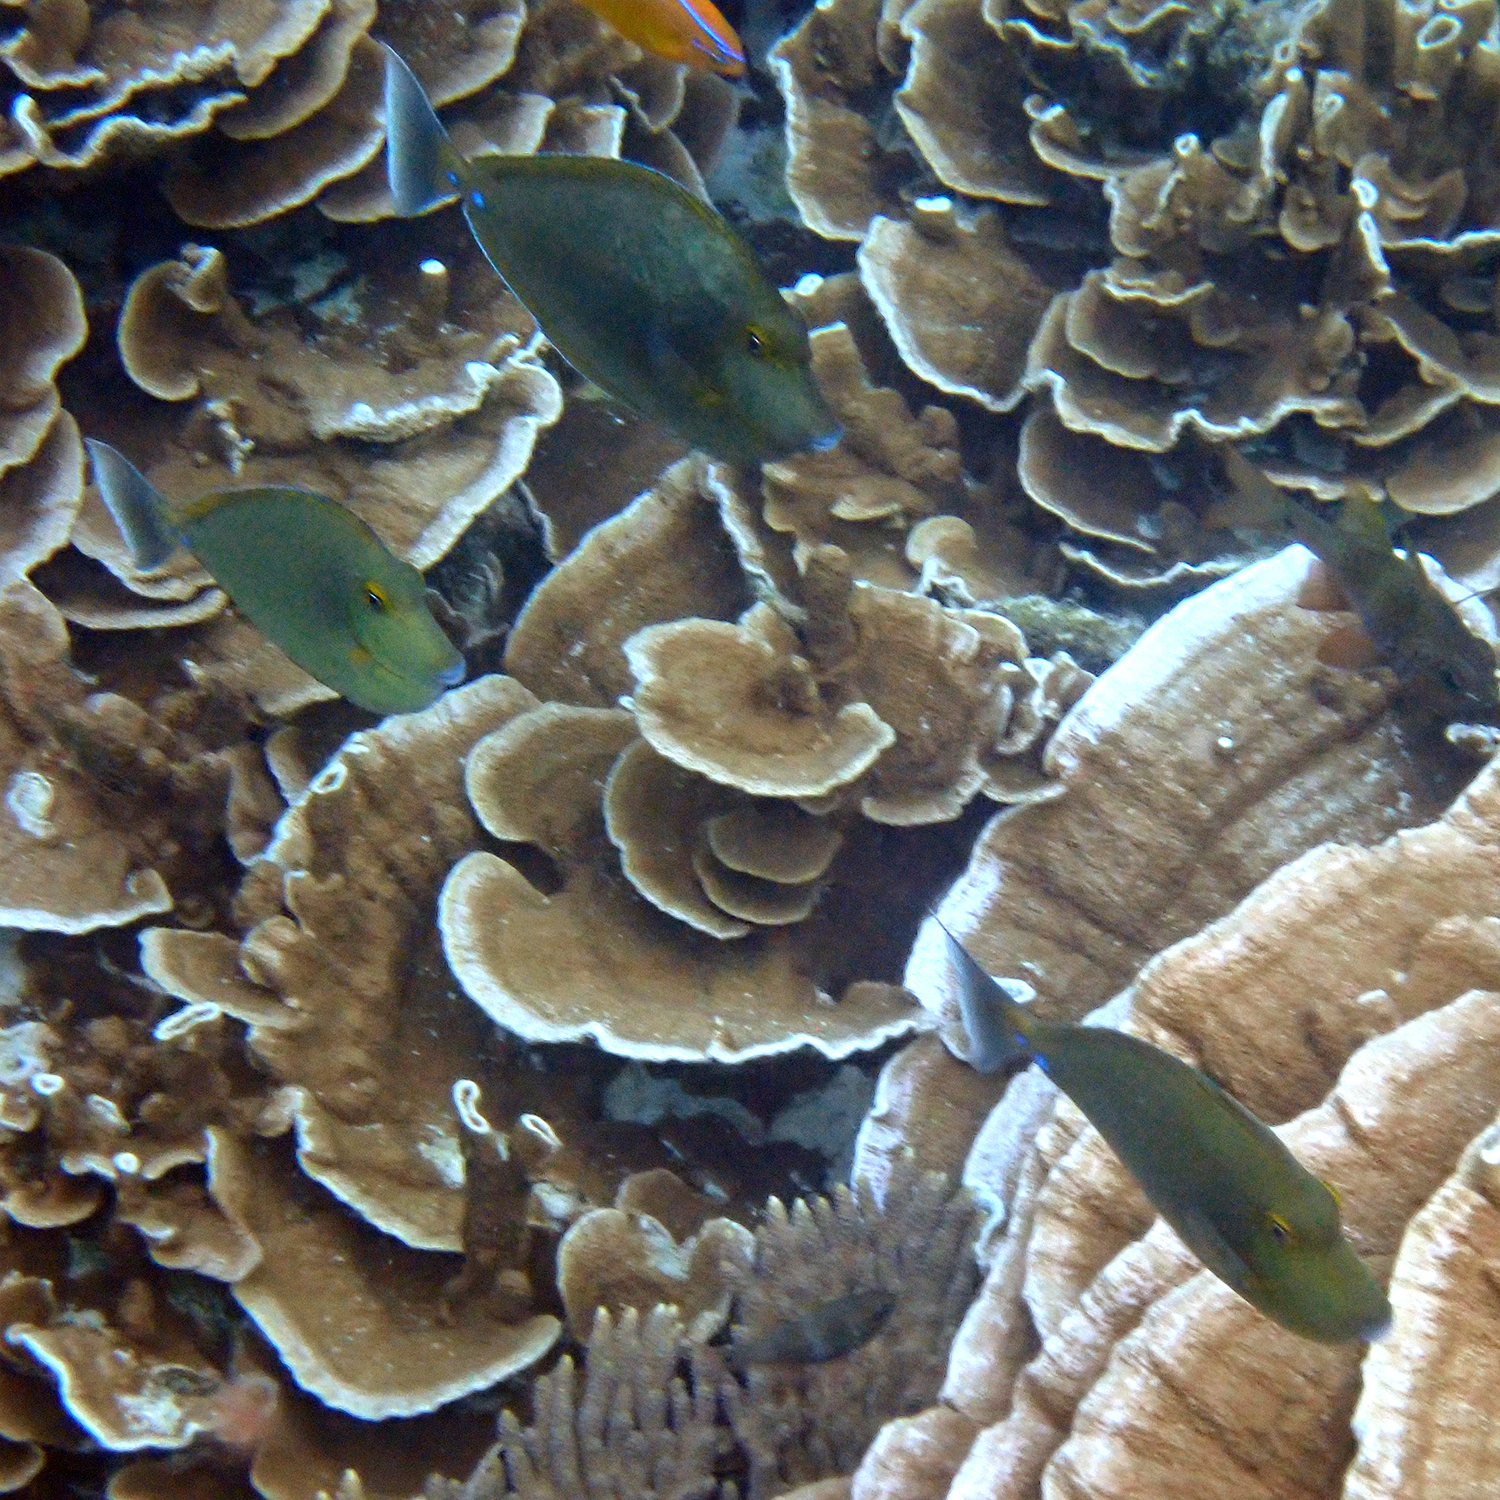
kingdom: Animalia
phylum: Chordata
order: Perciformes
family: Acanthuridae
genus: Naso
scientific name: Naso unicornis
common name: Bluespine unicornfish
